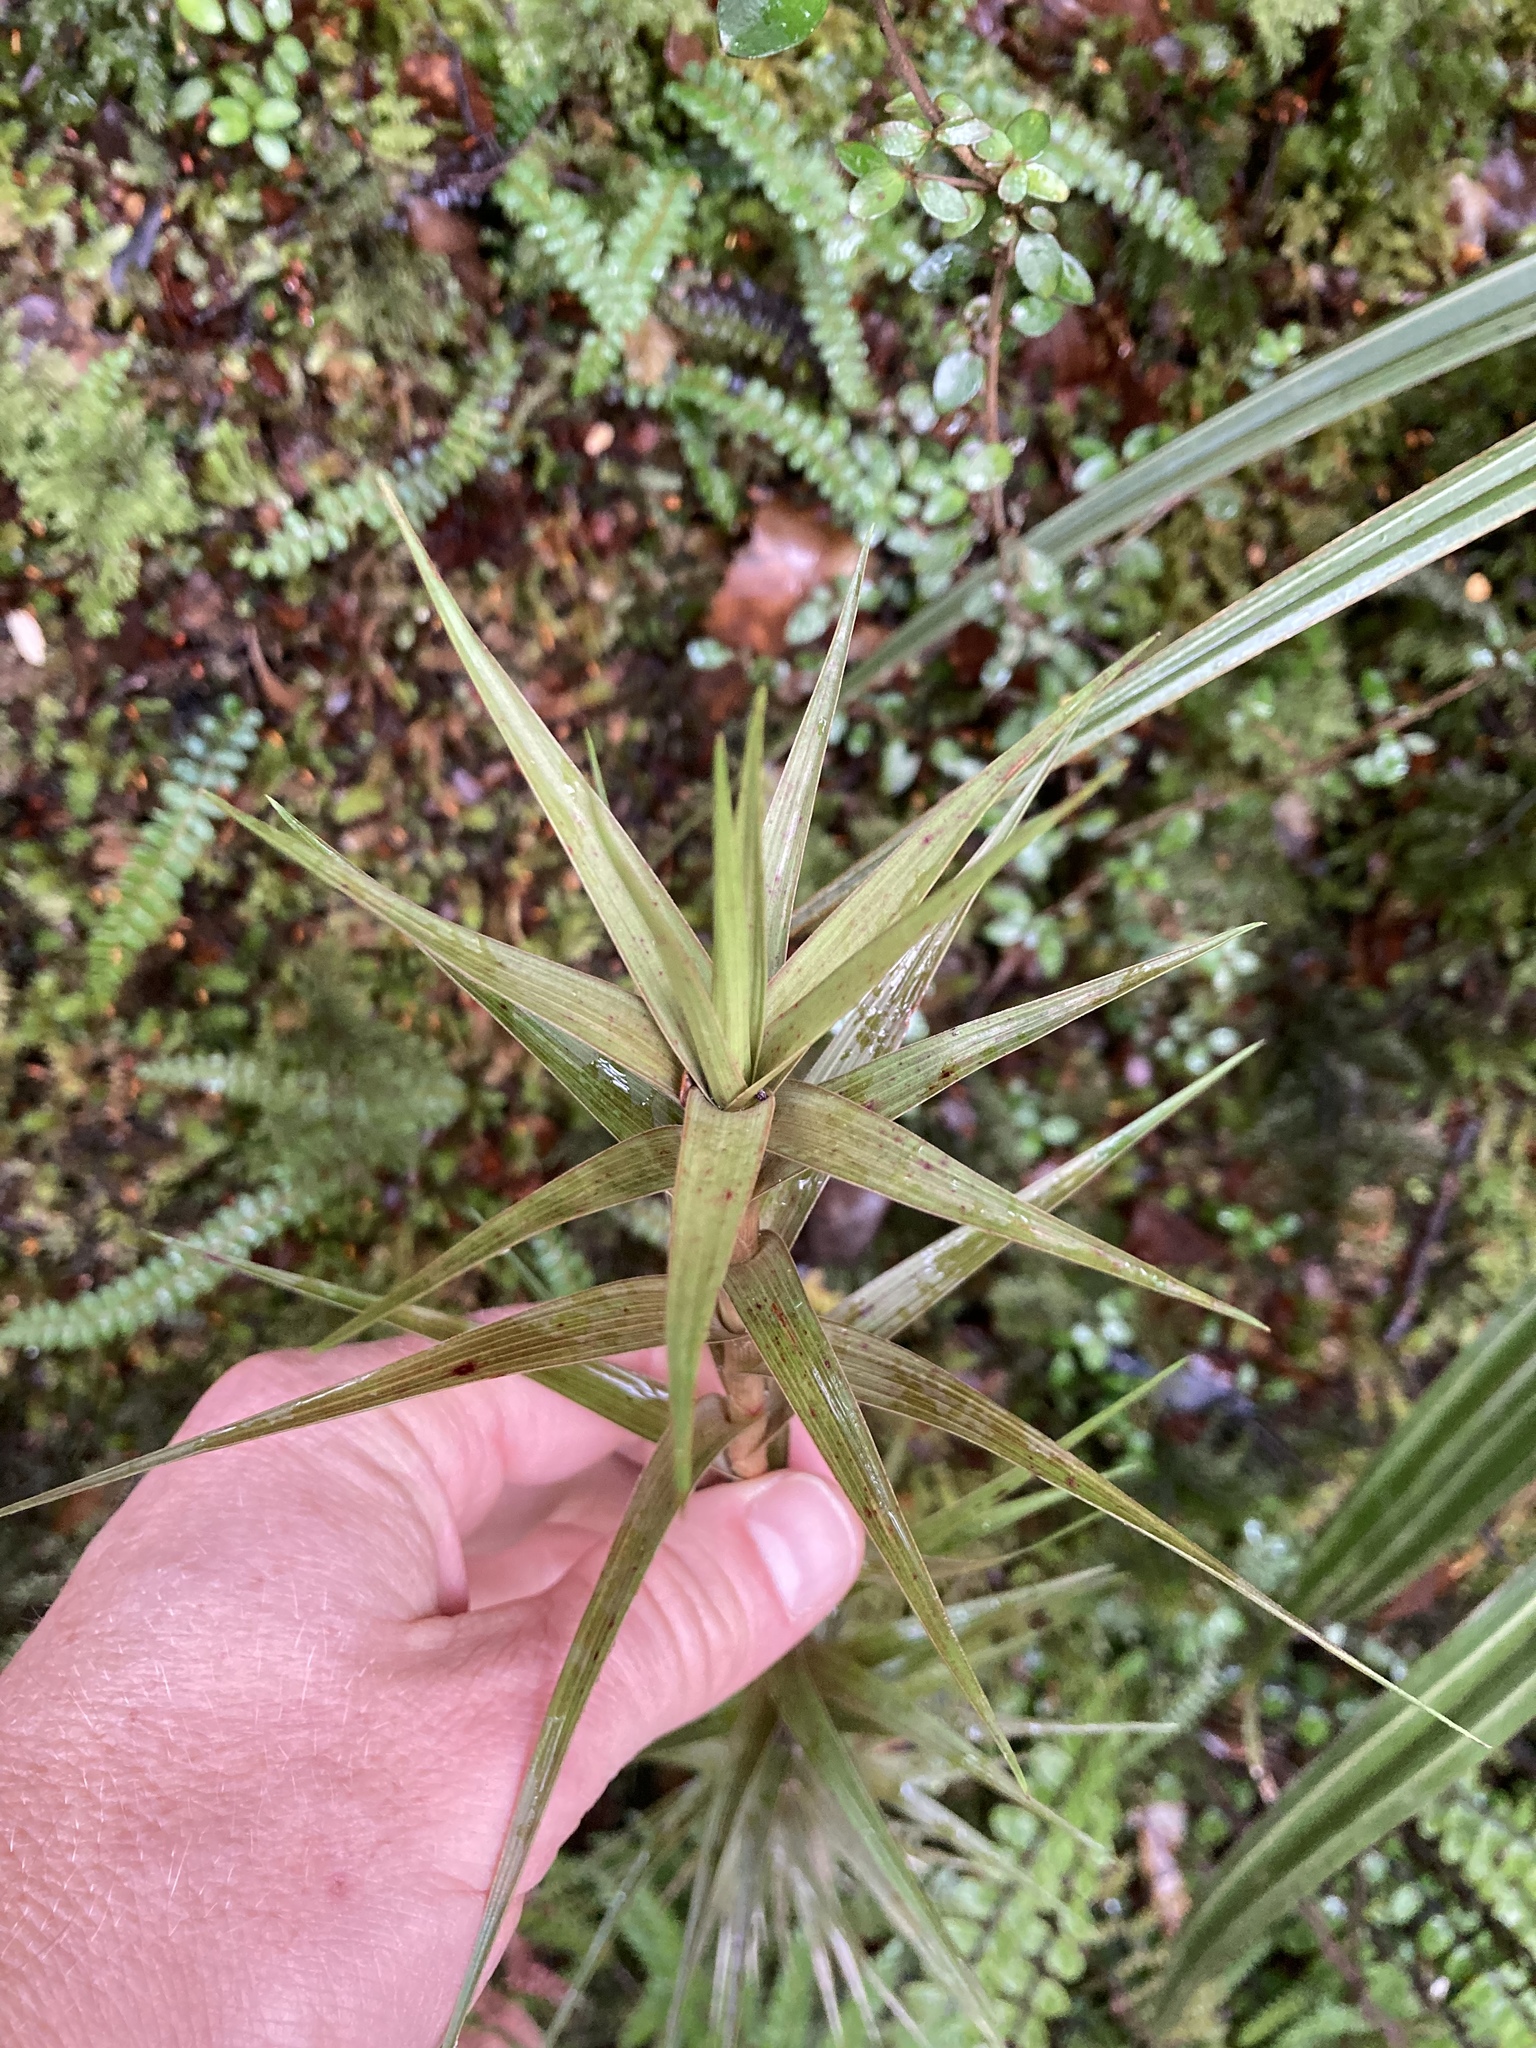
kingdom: Plantae
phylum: Tracheophyta
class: Magnoliopsida
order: Ericales
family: Ericaceae
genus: Dracophyllum
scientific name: Dracophyllum longifolium
